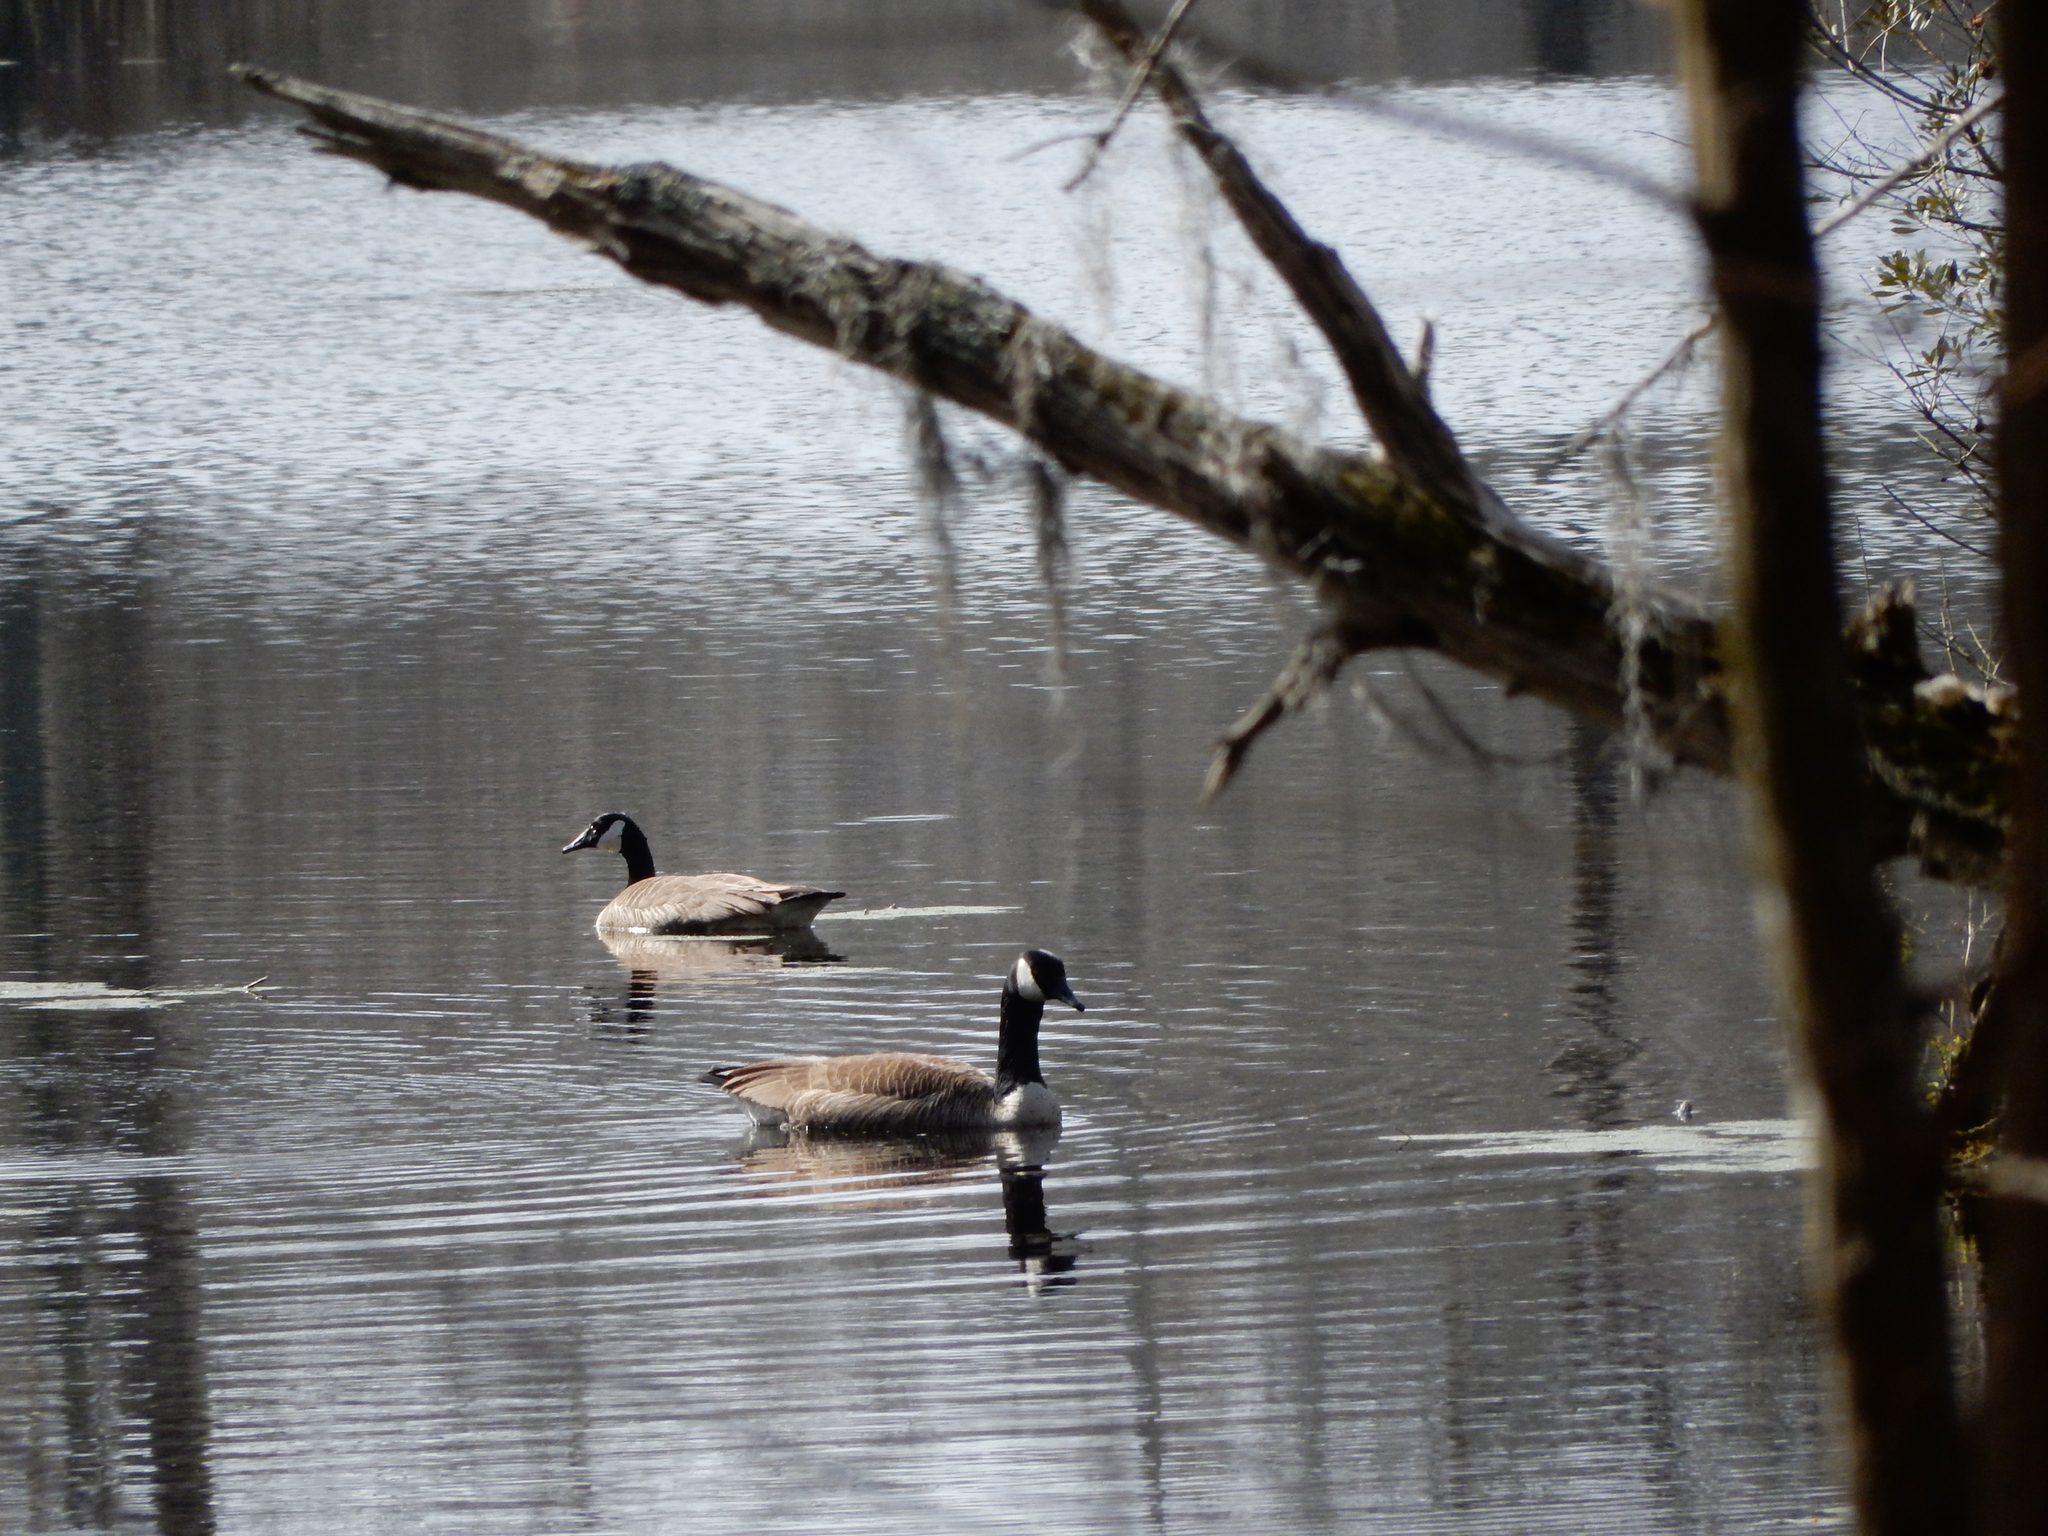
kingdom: Animalia
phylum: Chordata
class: Aves
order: Anseriformes
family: Anatidae
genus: Branta
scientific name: Branta canadensis
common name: Canada goose
